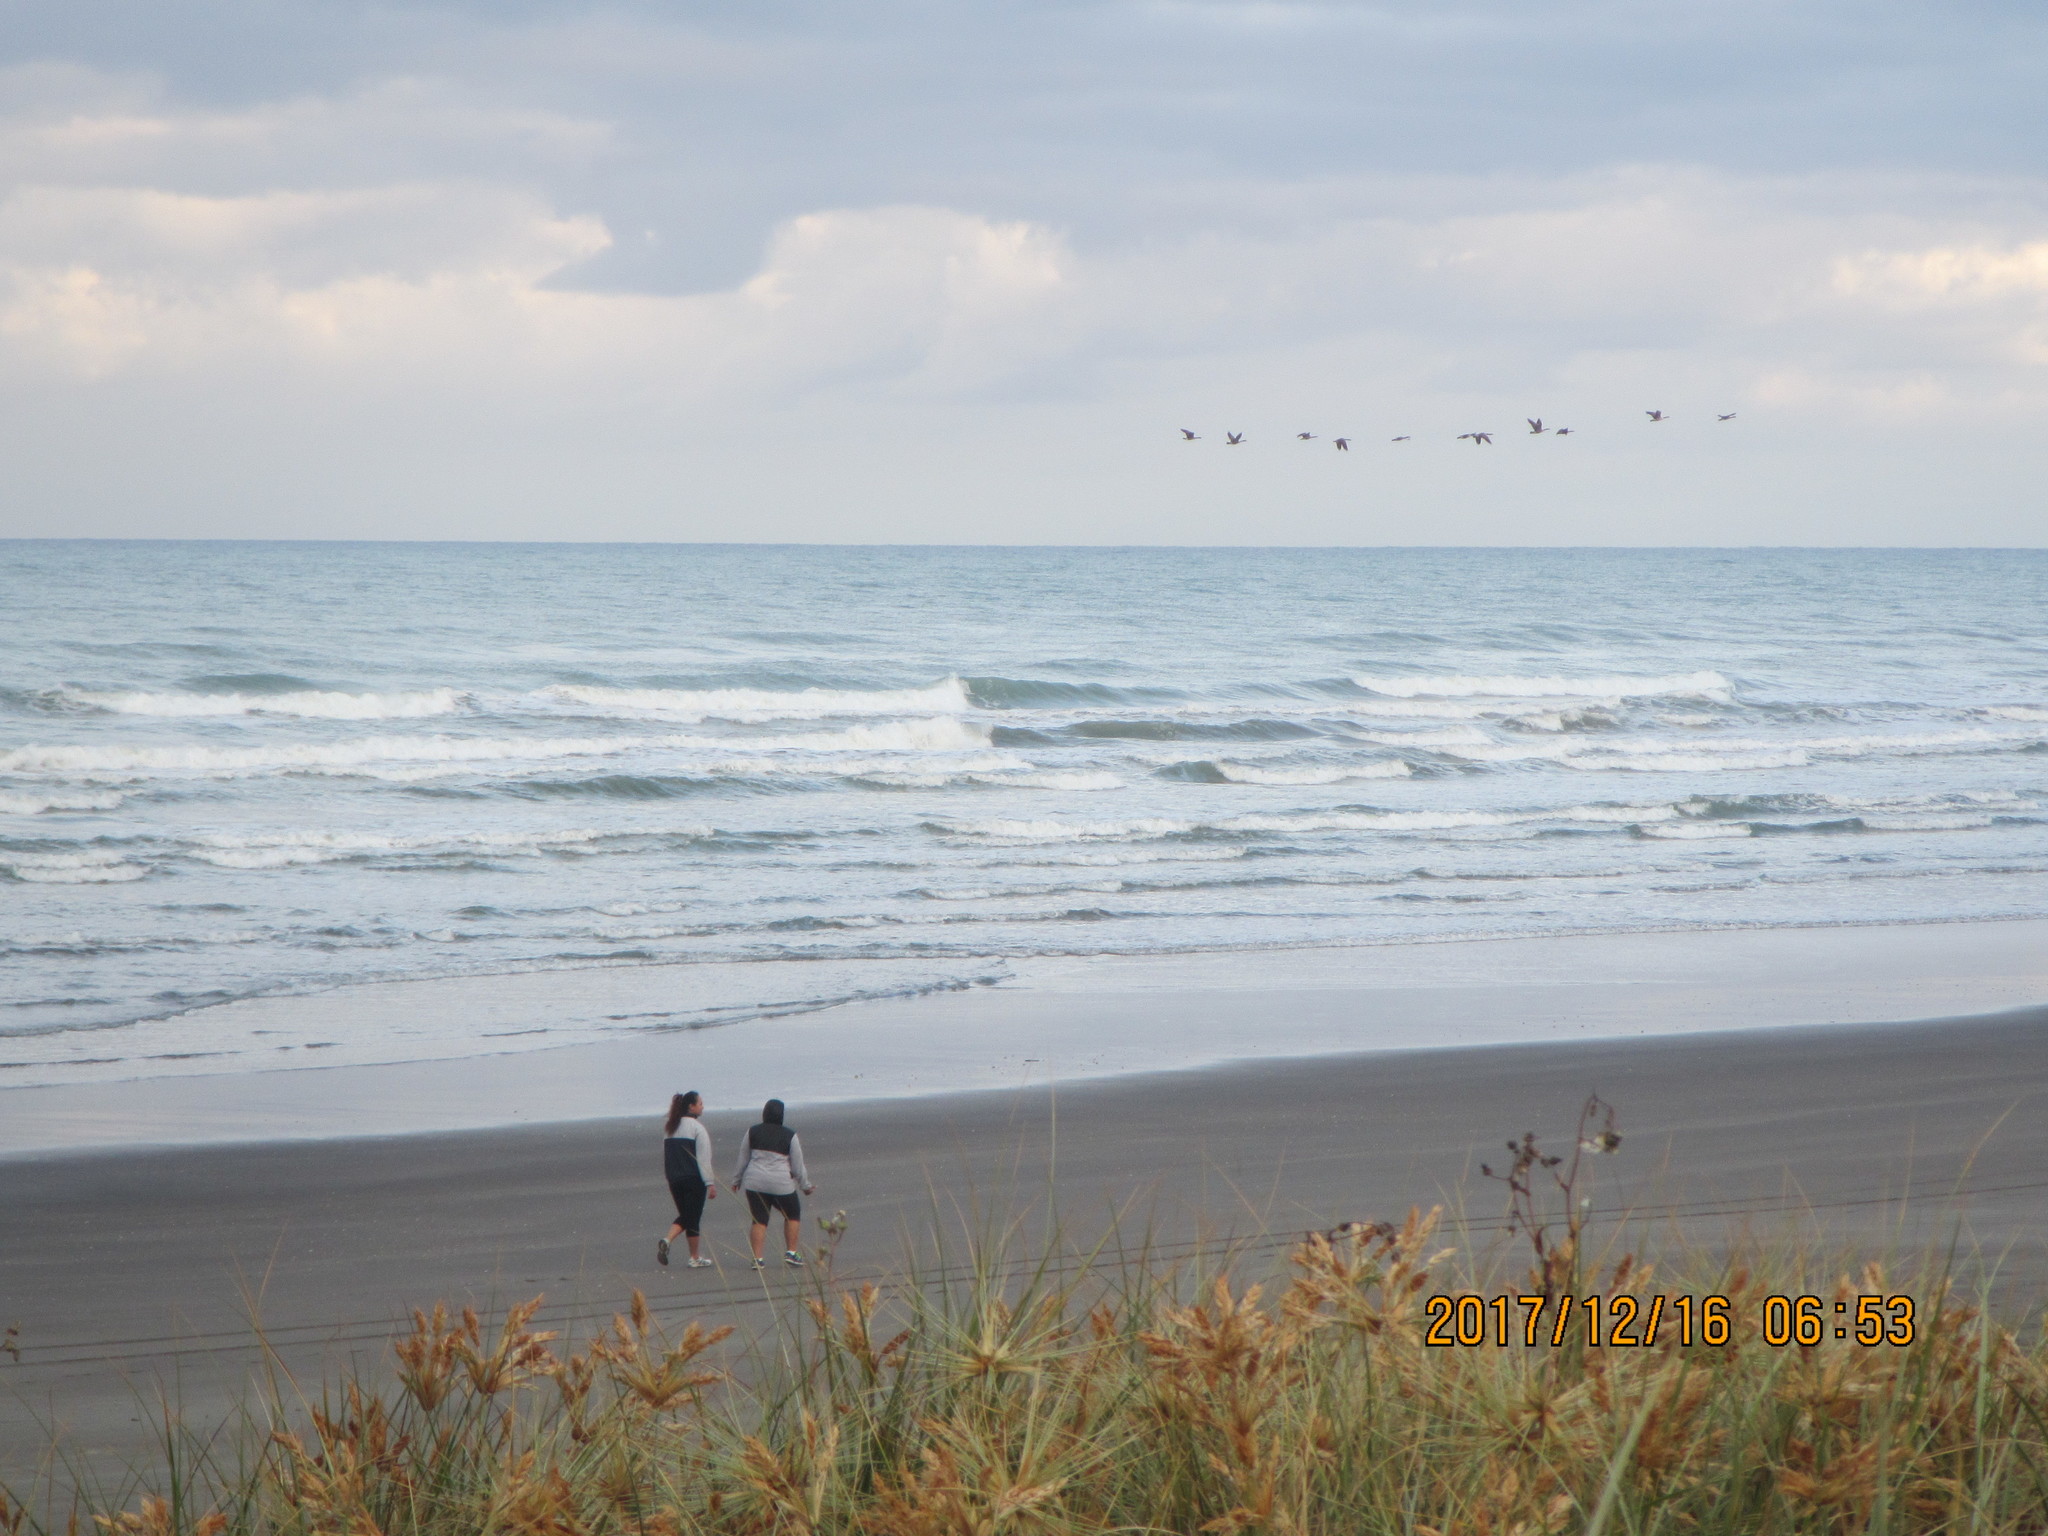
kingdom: Animalia
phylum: Chordata
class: Aves
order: Anseriformes
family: Anatidae
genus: Branta
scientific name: Branta canadensis
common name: Canada goose
